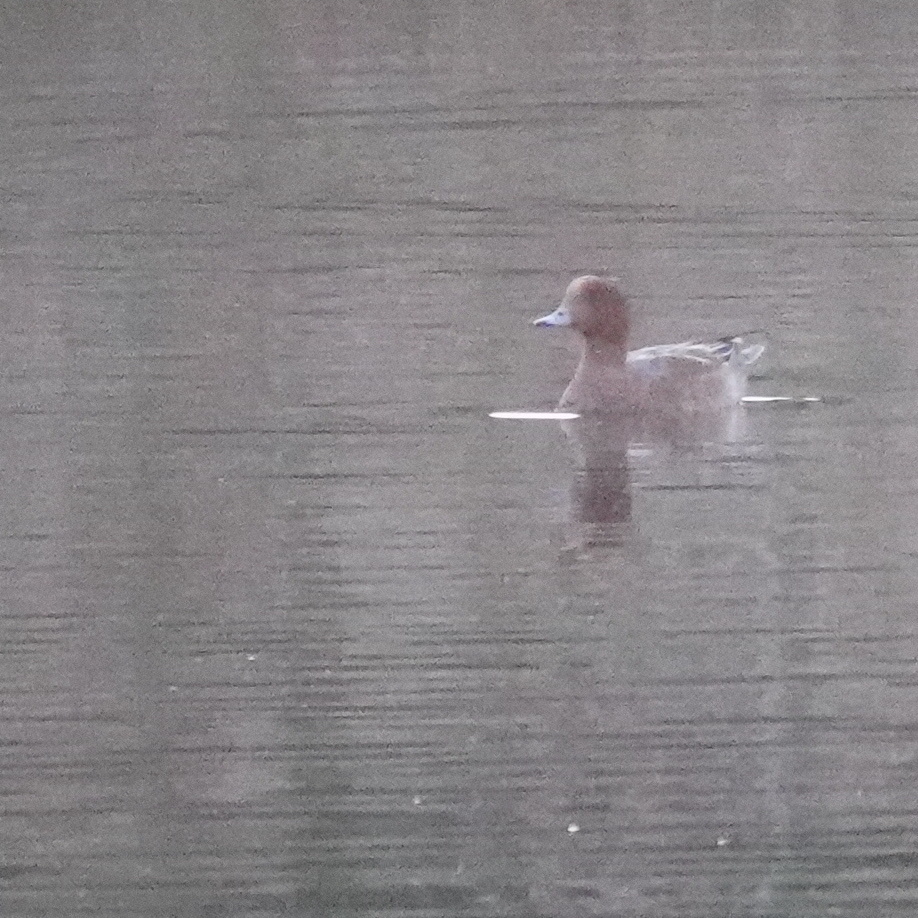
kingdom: Animalia
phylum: Chordata
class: Aves
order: Anseriformes
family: Anatidae
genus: Mareca
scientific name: Mareca penelope
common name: Eurasian wigeon
